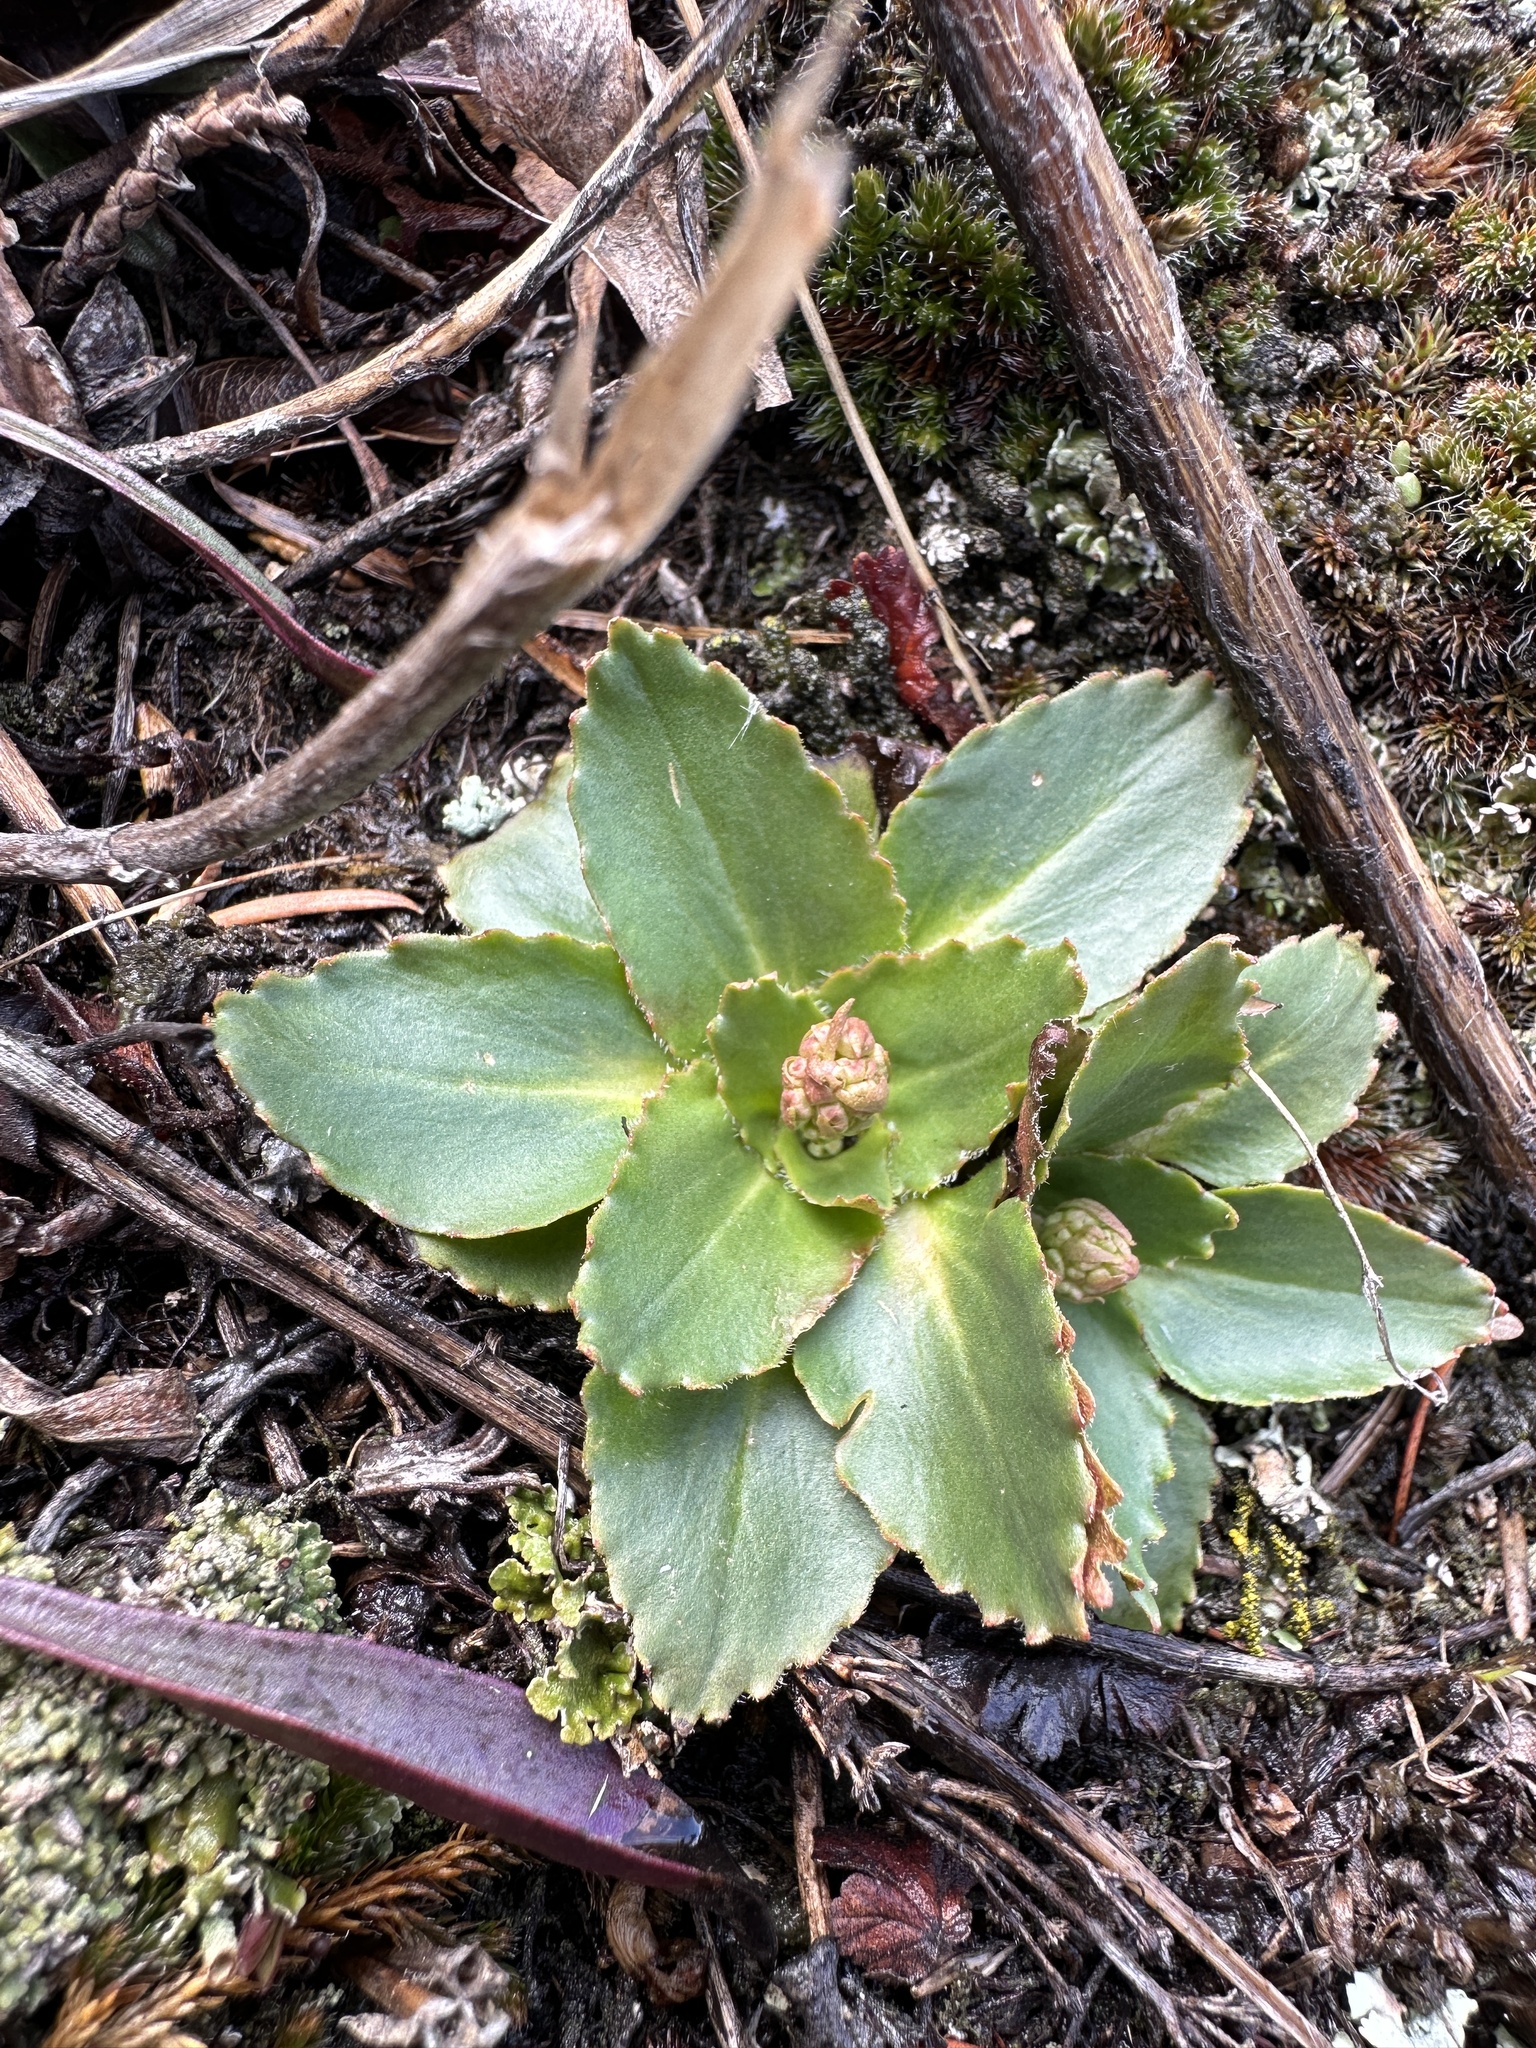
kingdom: Plantae
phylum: Tracheophyta
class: Magnoliopsida
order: Saxifragales
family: Saxifragaceae
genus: Micranthes
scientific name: Micranthes rhomboidea
